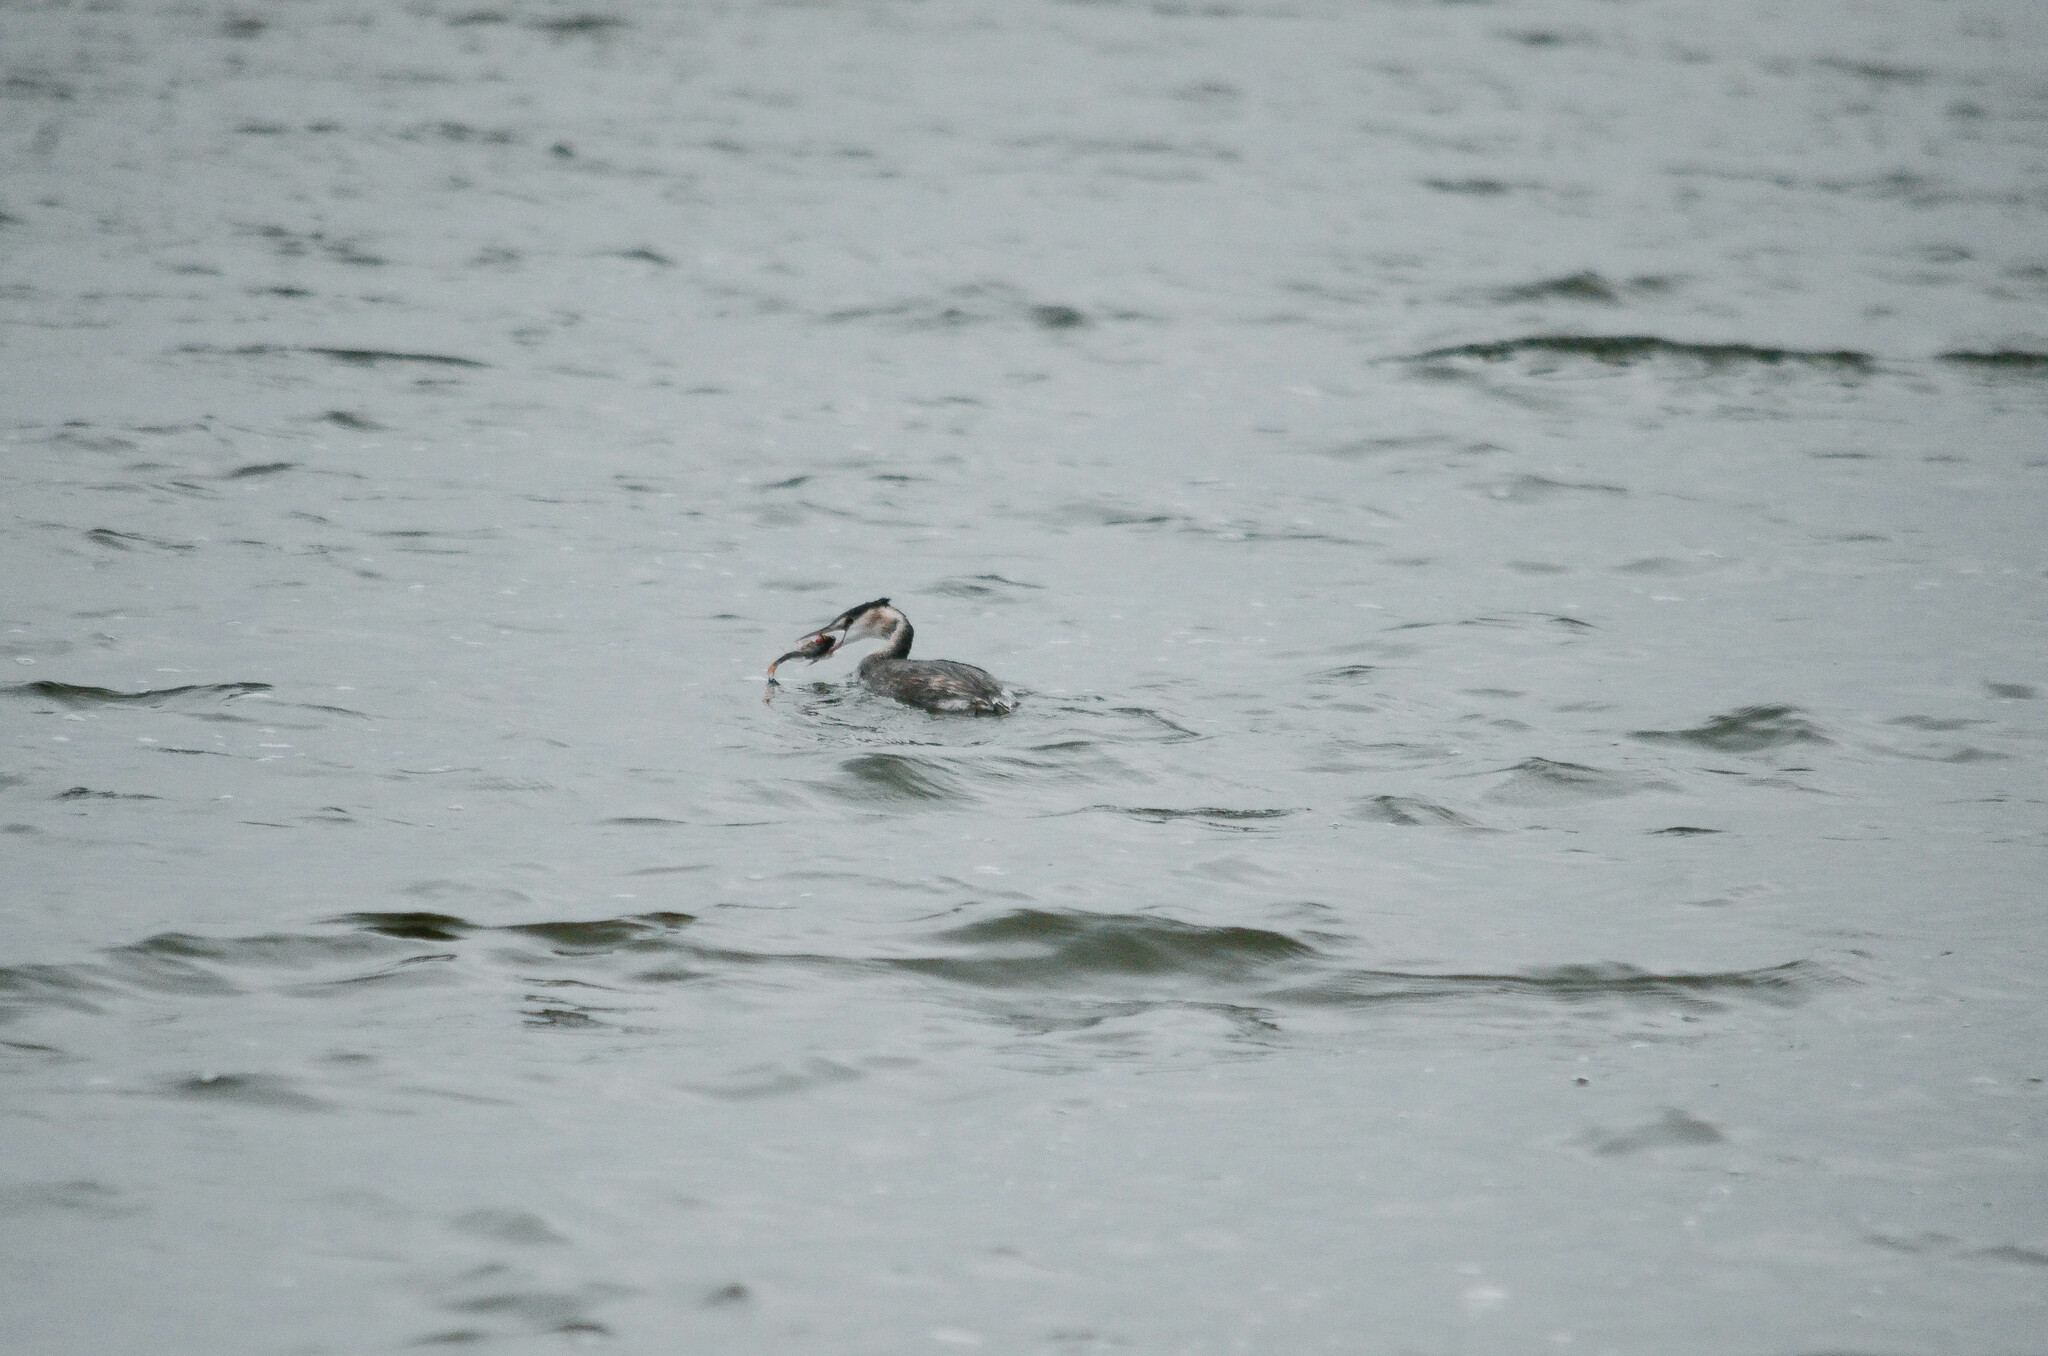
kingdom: Animalia
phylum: Chordata
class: Aves
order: Podicipediformes
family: Podicipedidae
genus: Podiceps
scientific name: Podiceps cristatus
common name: Great crested grebe
